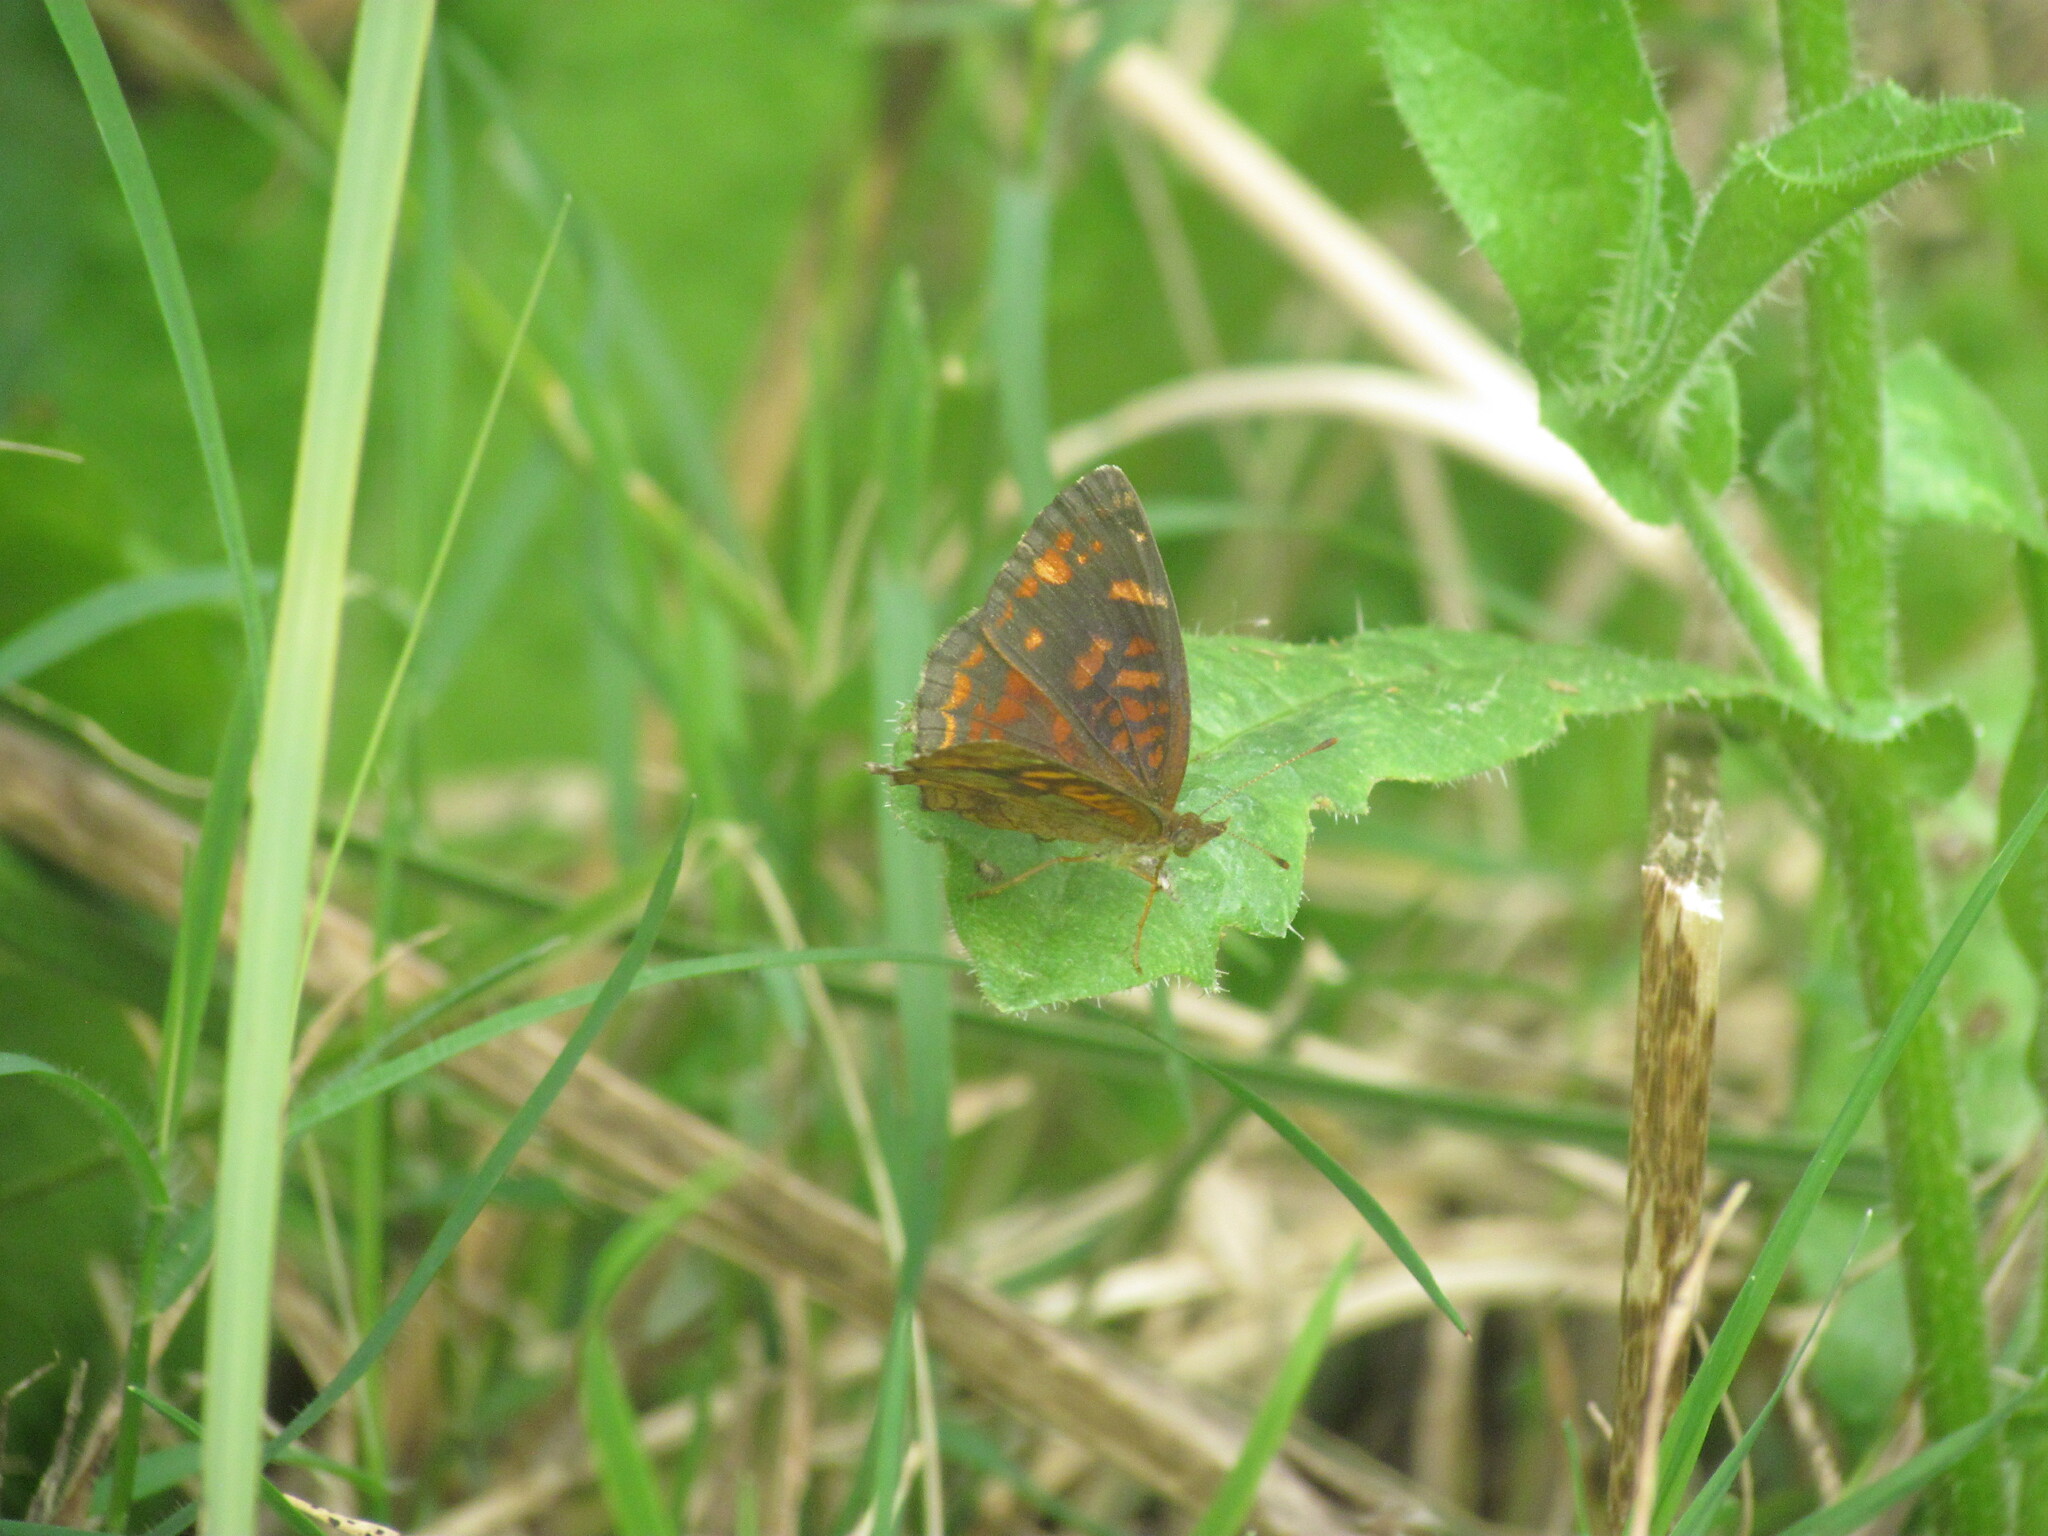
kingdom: Animalia
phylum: Arthropoda
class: Insecta
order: Lepidoptera
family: Nymphalidae
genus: Ortilia
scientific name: Ortilia velica
